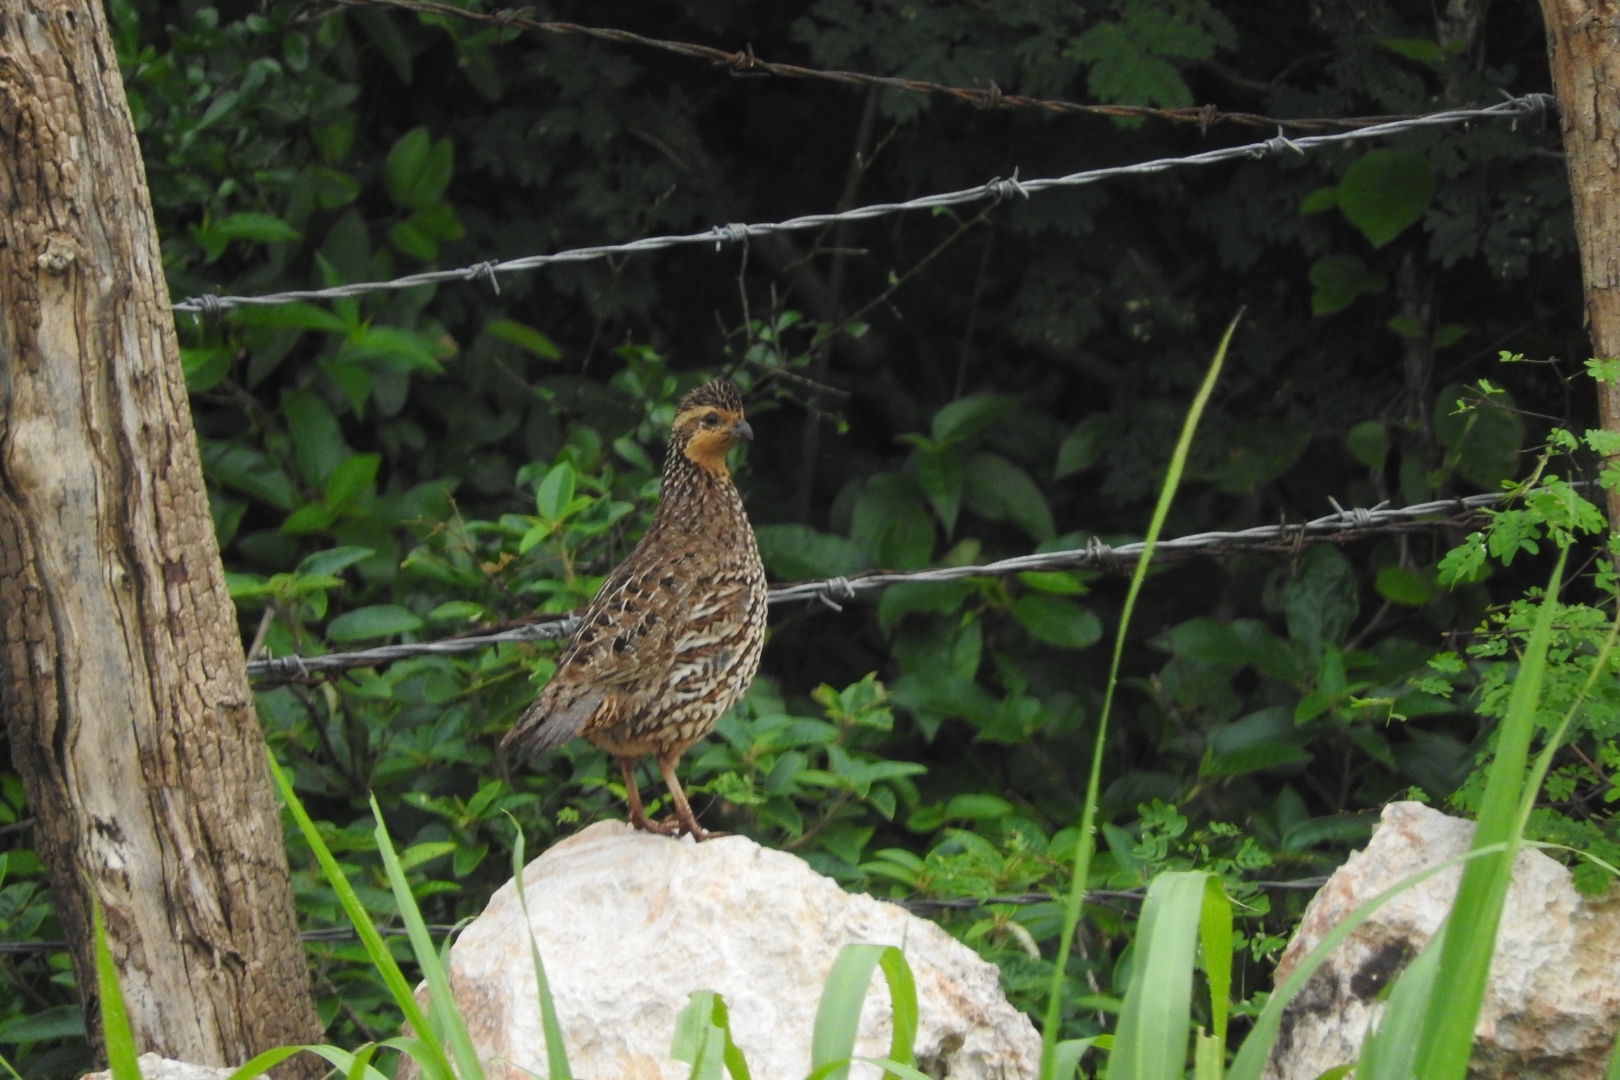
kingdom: Animalia
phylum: Chordata
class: Aves
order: Galliformes
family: Odontophoridae
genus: Colinus
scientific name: Colinus nigrogularis
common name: Yucatan bobwhite
